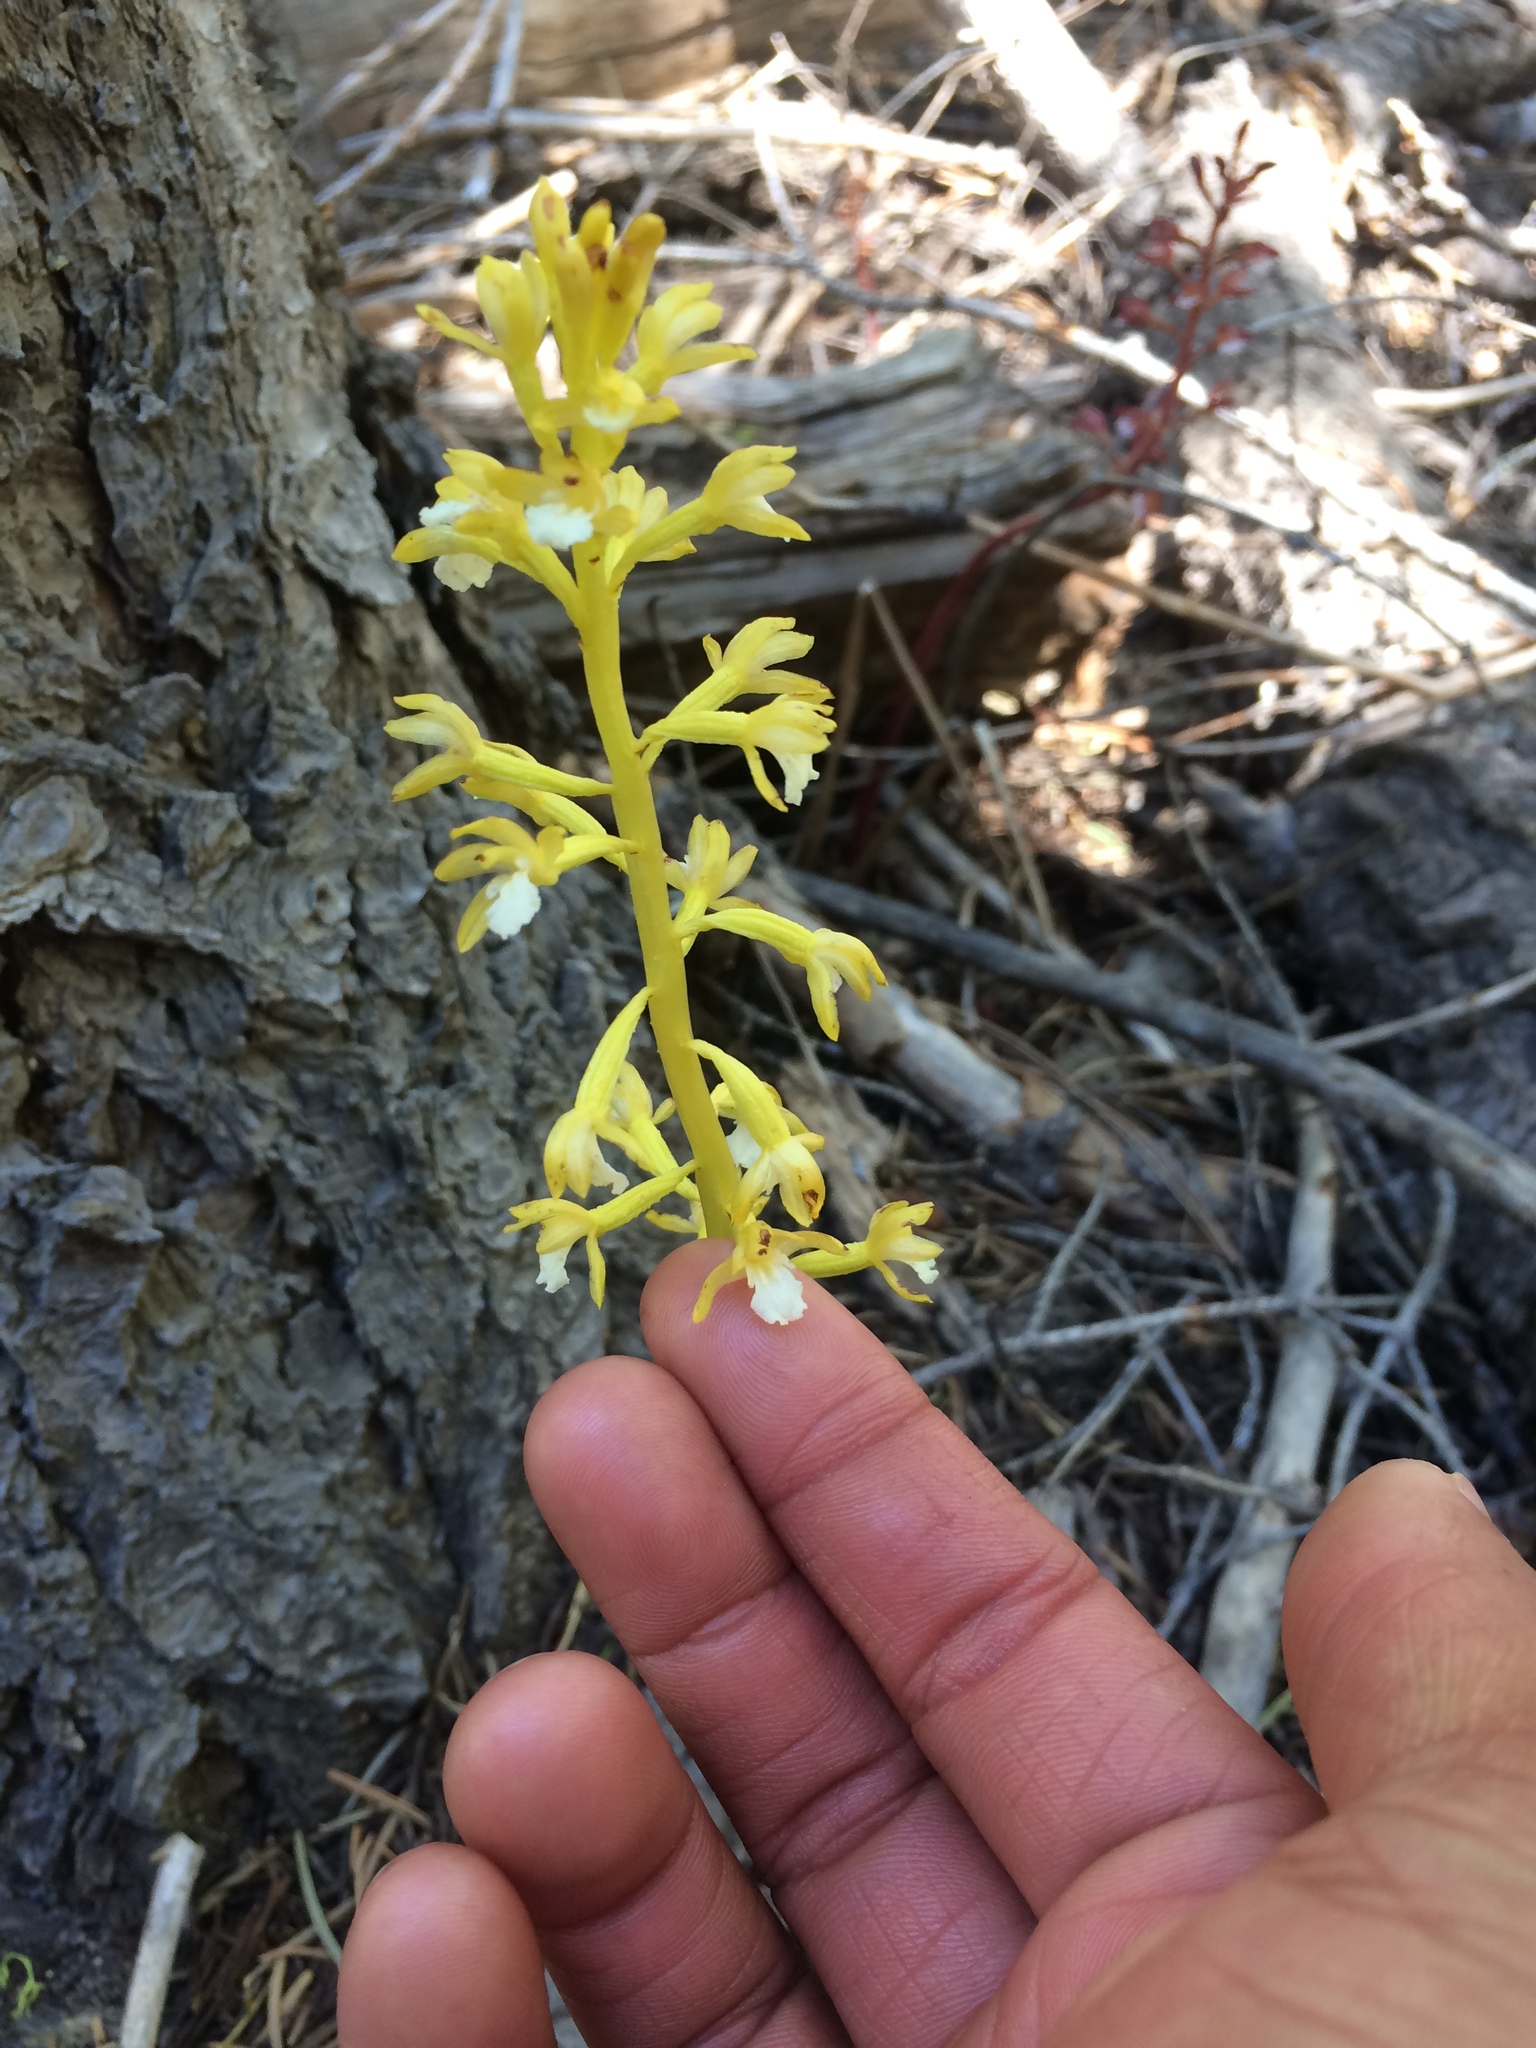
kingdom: Plantae
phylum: Tracheophyta
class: Liliopsida
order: Asparagales
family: Orchidaceae
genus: Corallorhiza
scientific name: Corallorhiza maculata
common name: Spotted coralroot
